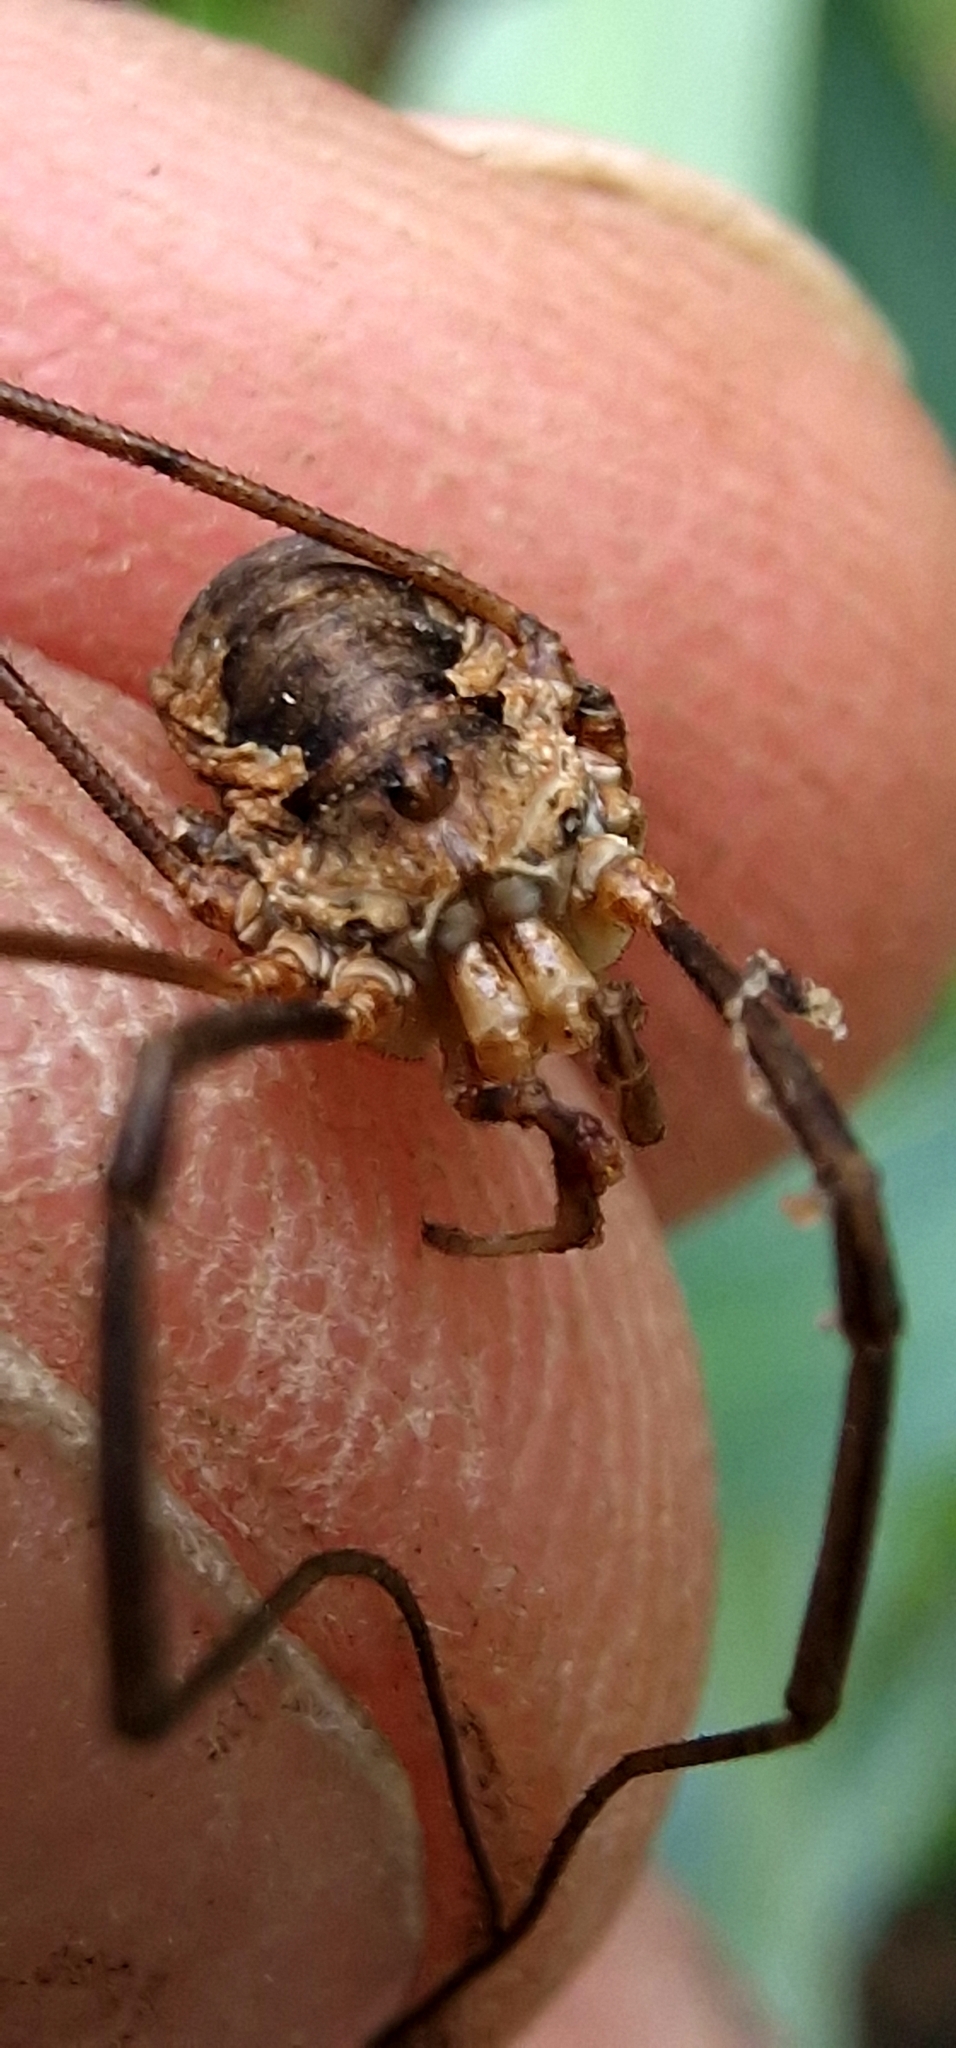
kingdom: Animalia
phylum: Arthropoda
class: Arachnida
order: Opiliones
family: Phalangiidae
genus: Phalangium
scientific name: Phalangium opilio
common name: Daddy longleg
